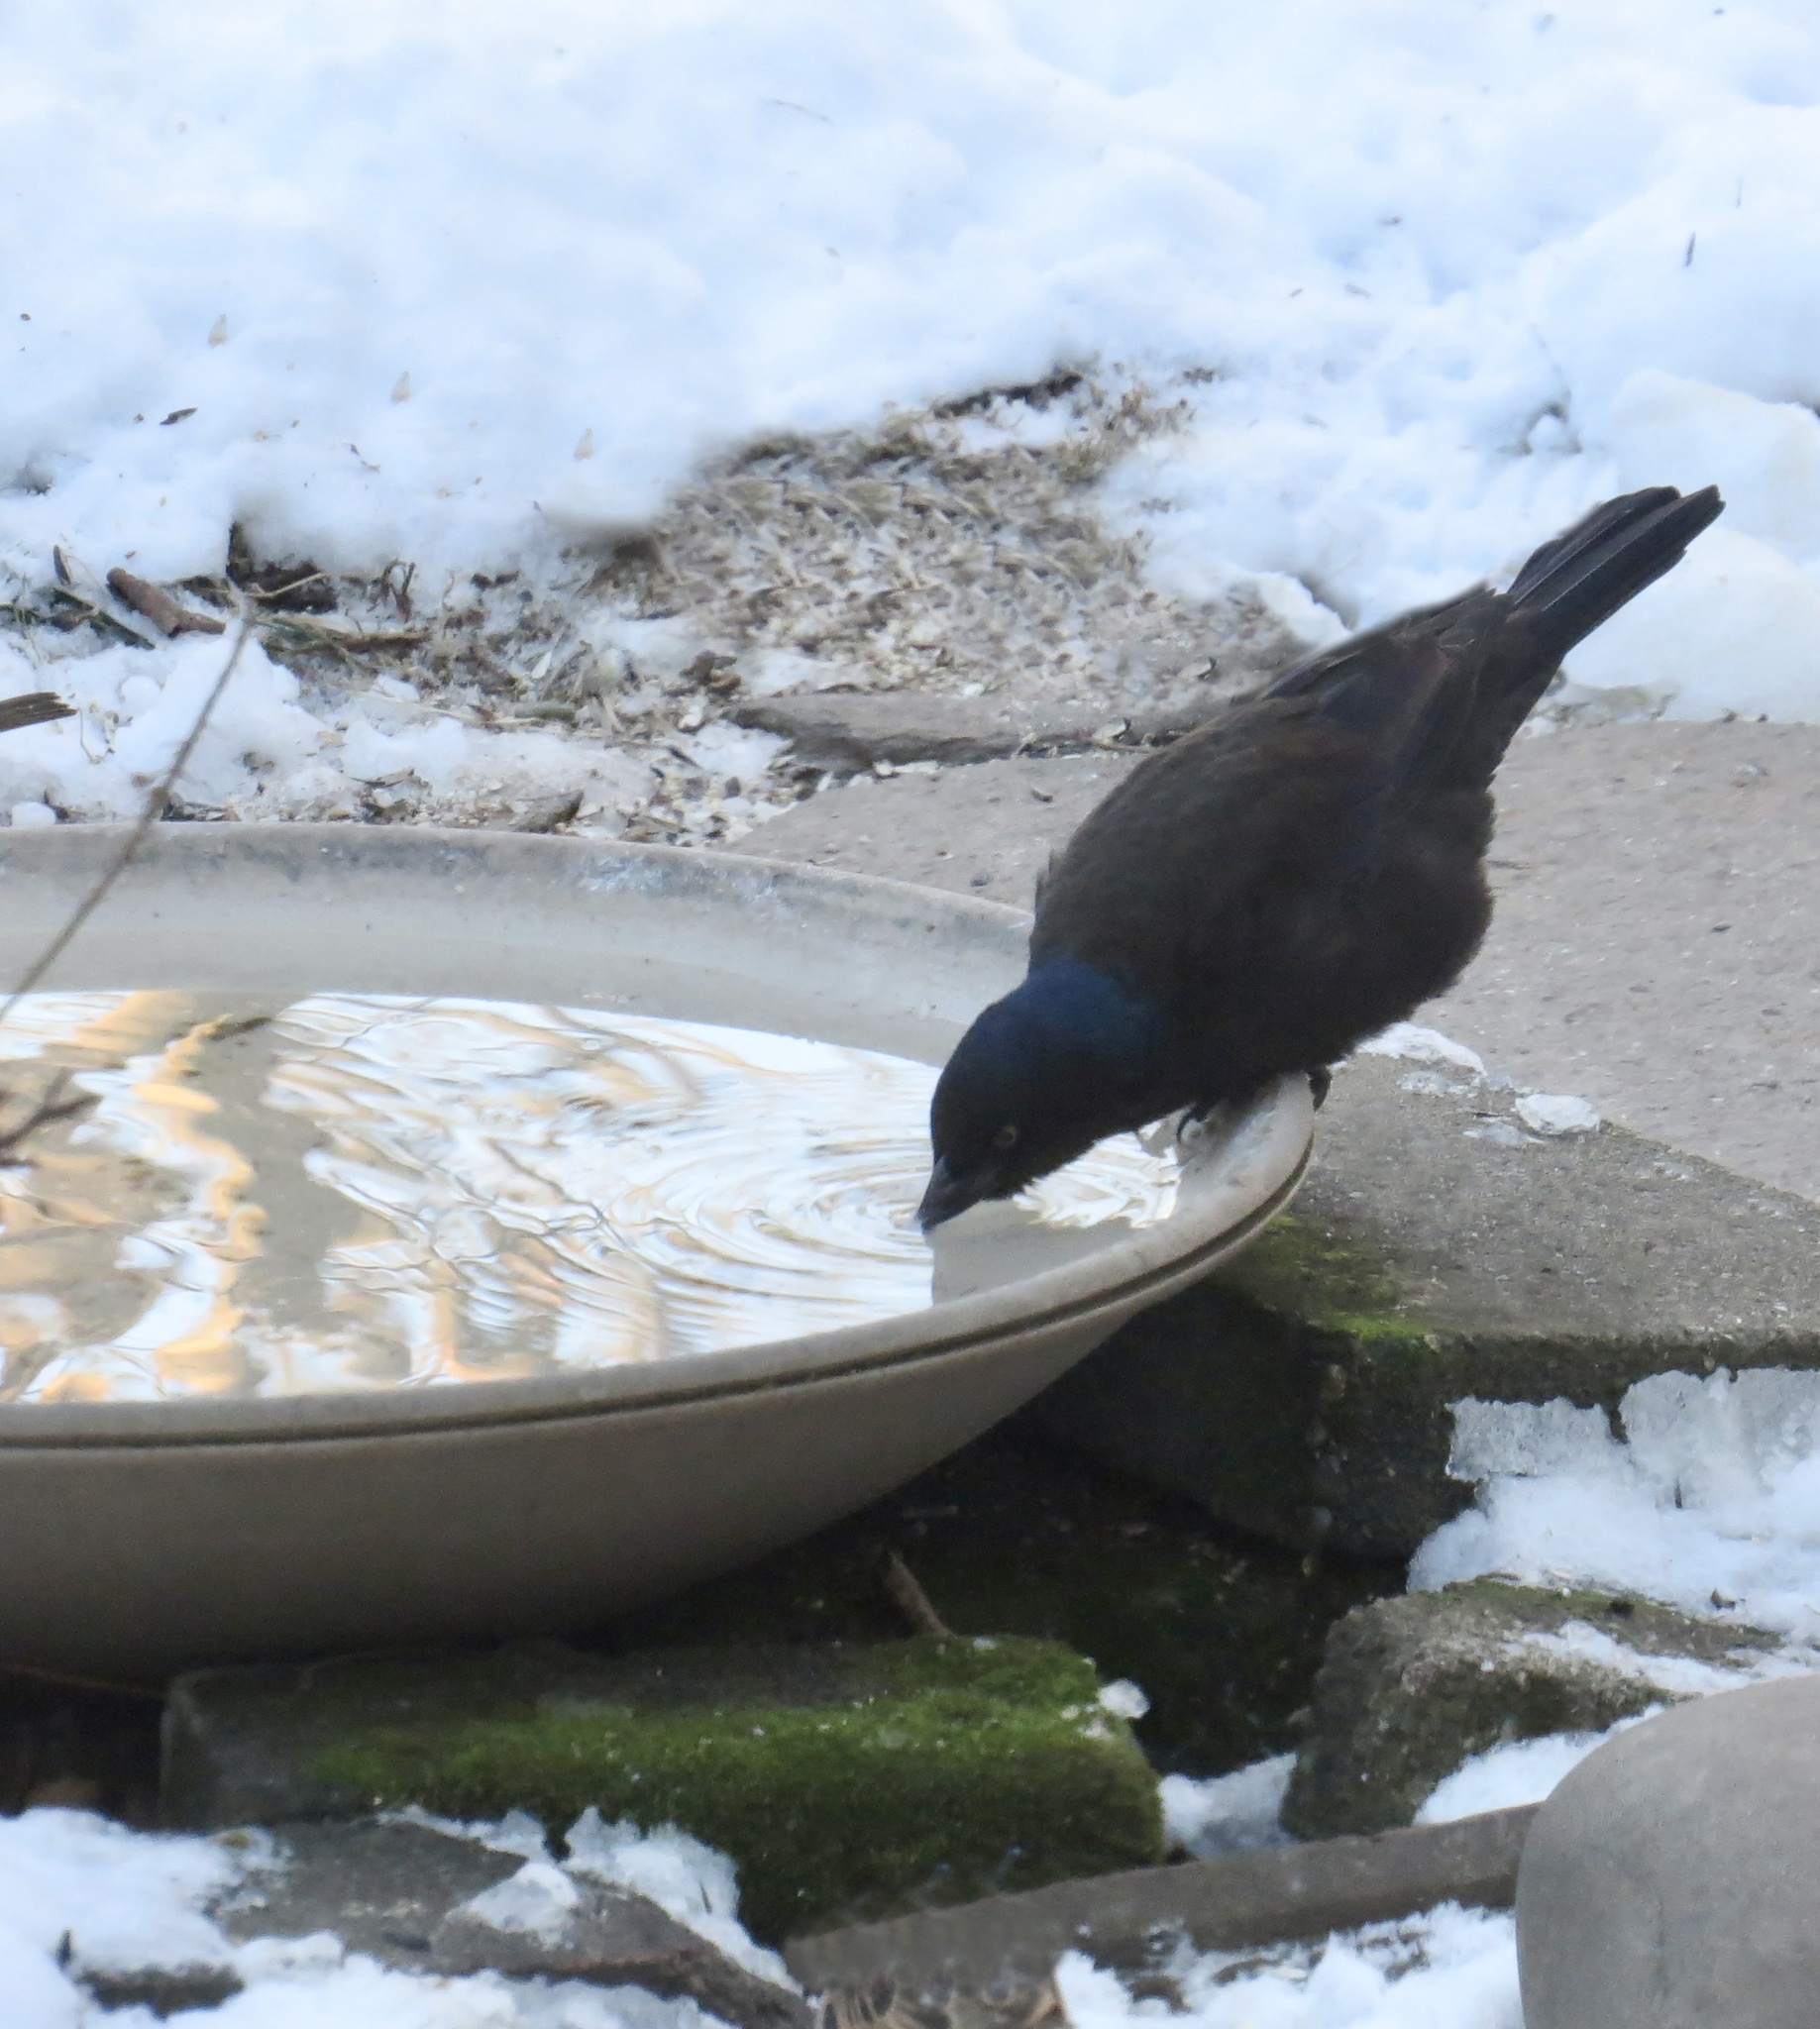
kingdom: Animalia
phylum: Chordata
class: Aves
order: Passeriformes
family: Icteridae
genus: Quiscalus
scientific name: Quiscalus quiscula
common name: Common grackle
